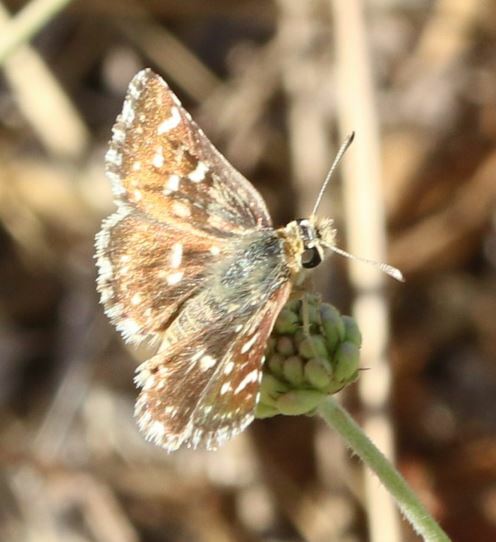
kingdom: Animalia
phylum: Arthropoda
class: Insecta
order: Lepidoptera
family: Hesperiidae
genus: Spialia
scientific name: Spialia sertorius
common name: Red underwing skipper
